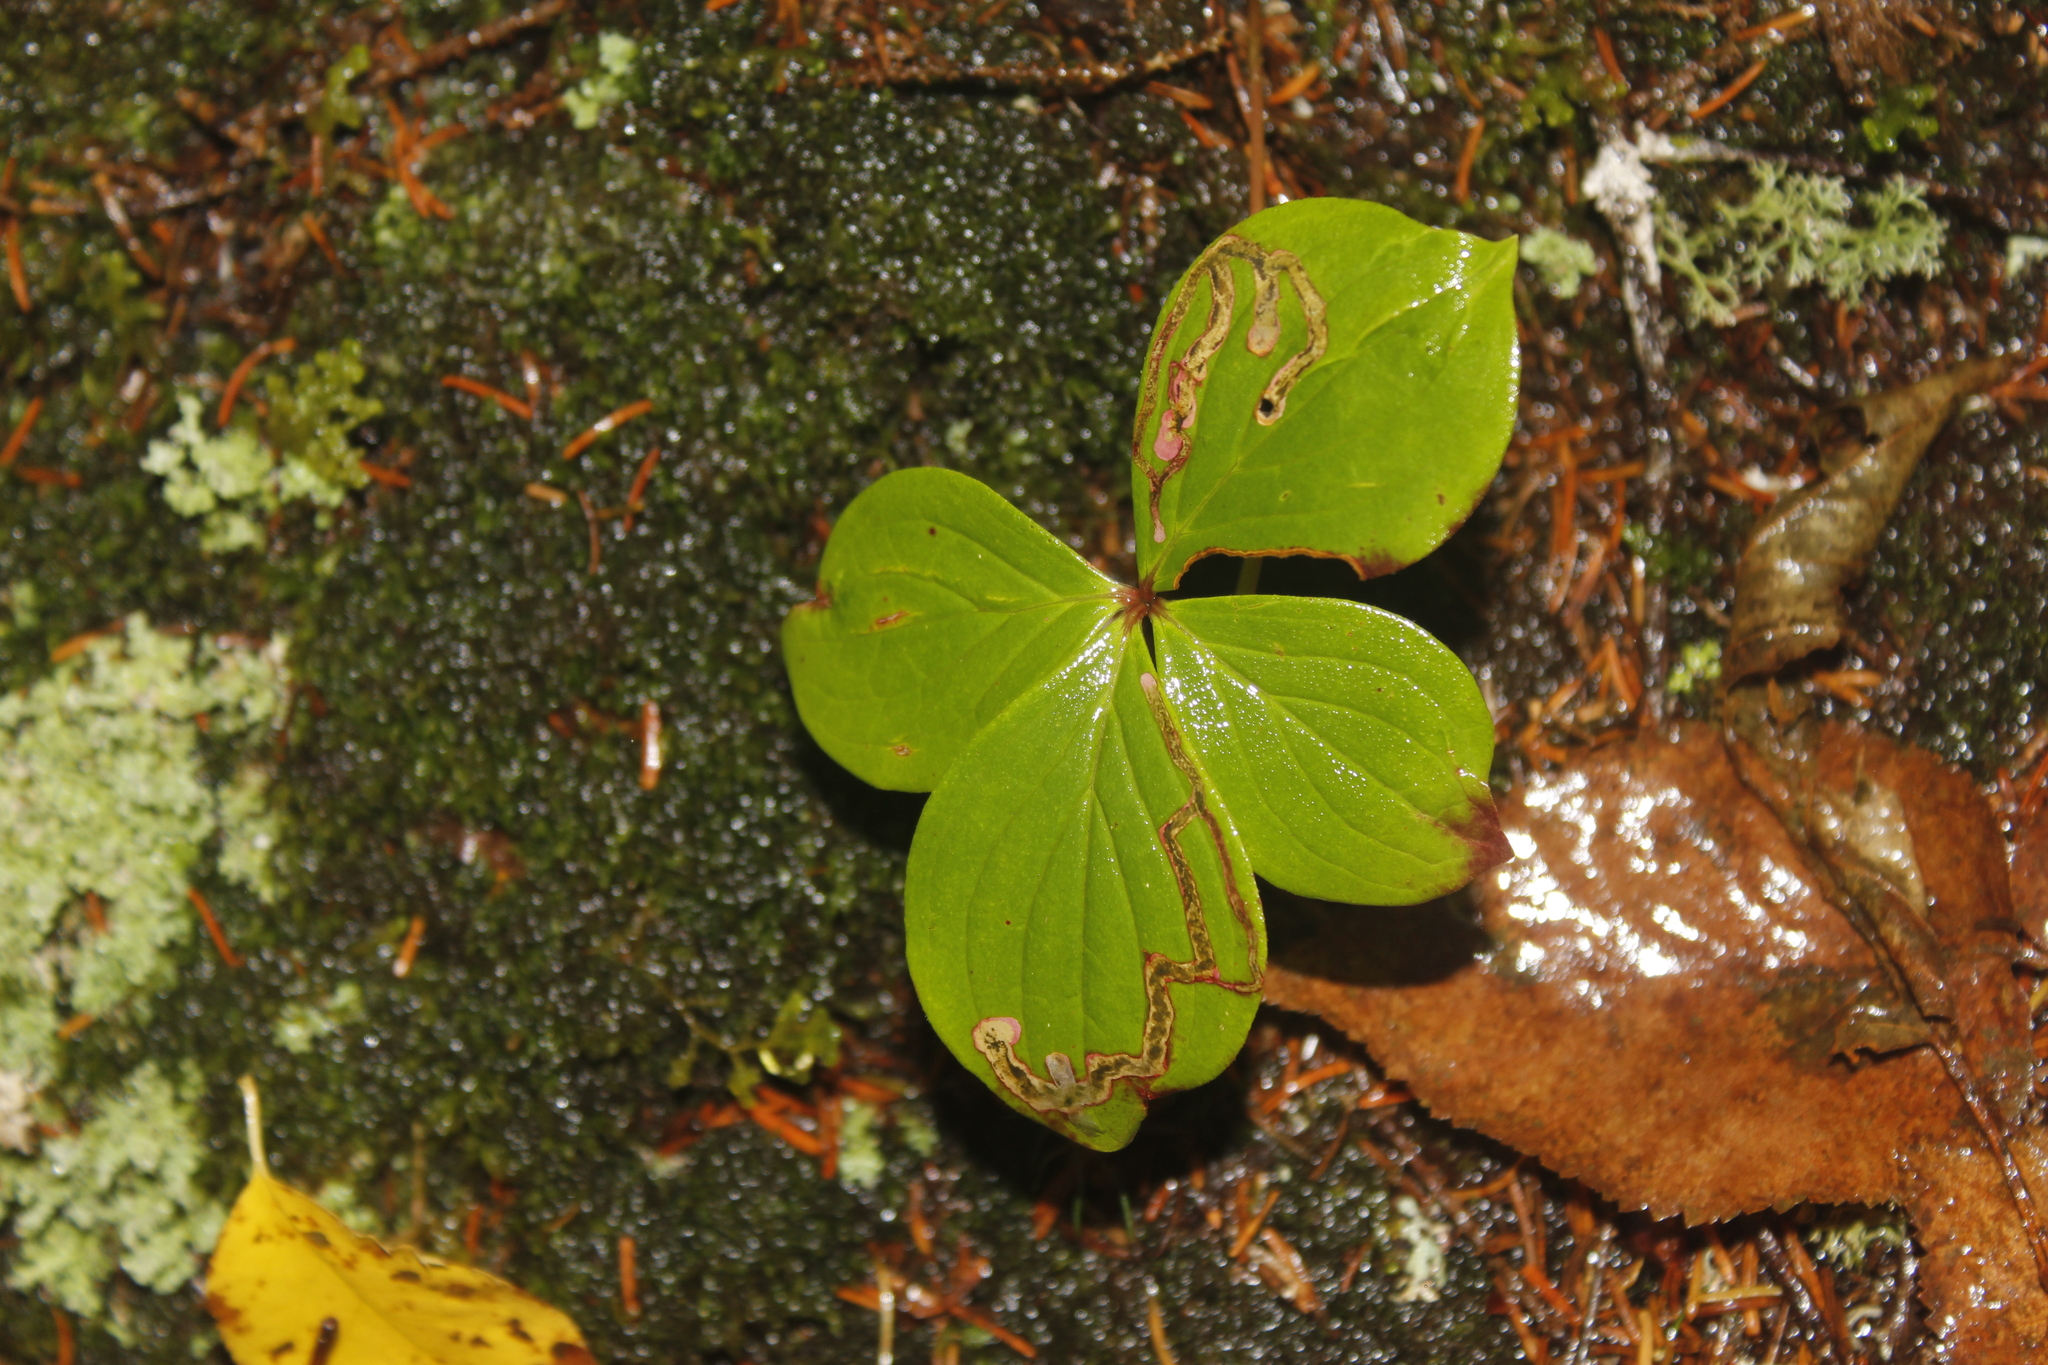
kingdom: Animalia
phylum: Arthropoda
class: Insecta
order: Diptera
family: Agromyzidae
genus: Phytomyza
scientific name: Phytomyza agromyzina
